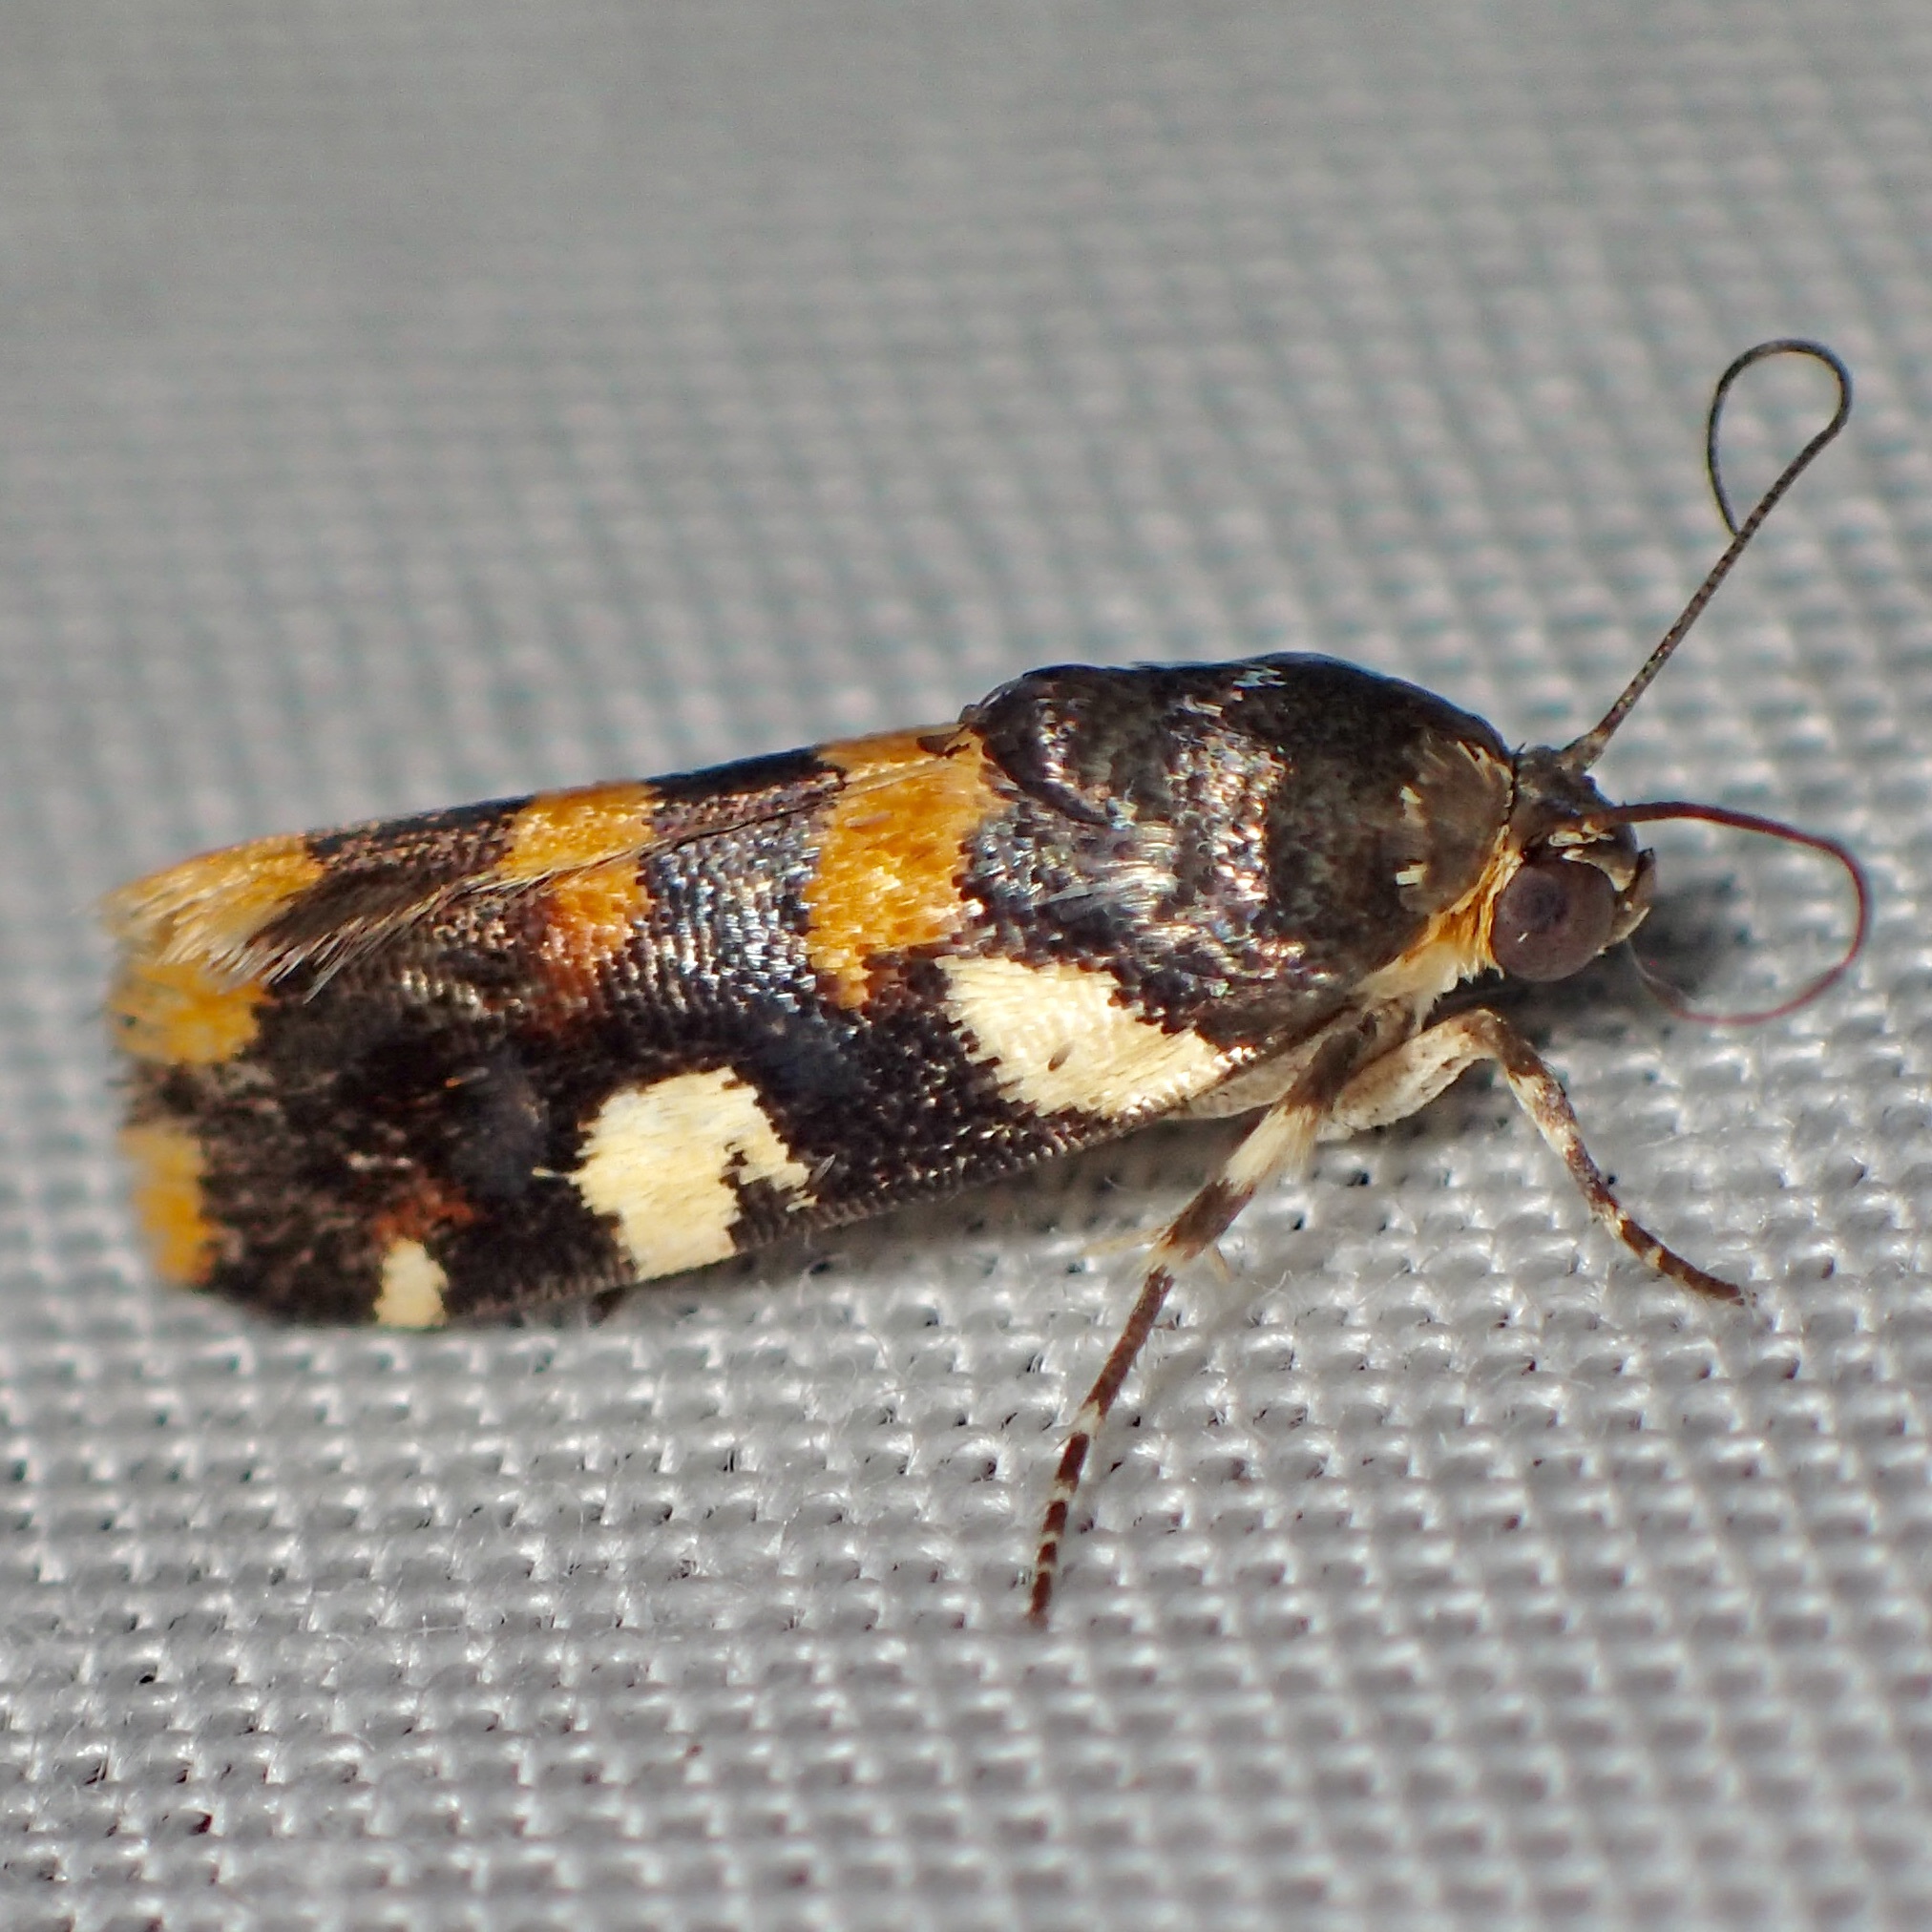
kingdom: Animalia
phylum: Arthropoda
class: Insecta
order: Lepidoptera
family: Noctuidae
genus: Acontia
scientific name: Acontia dama
